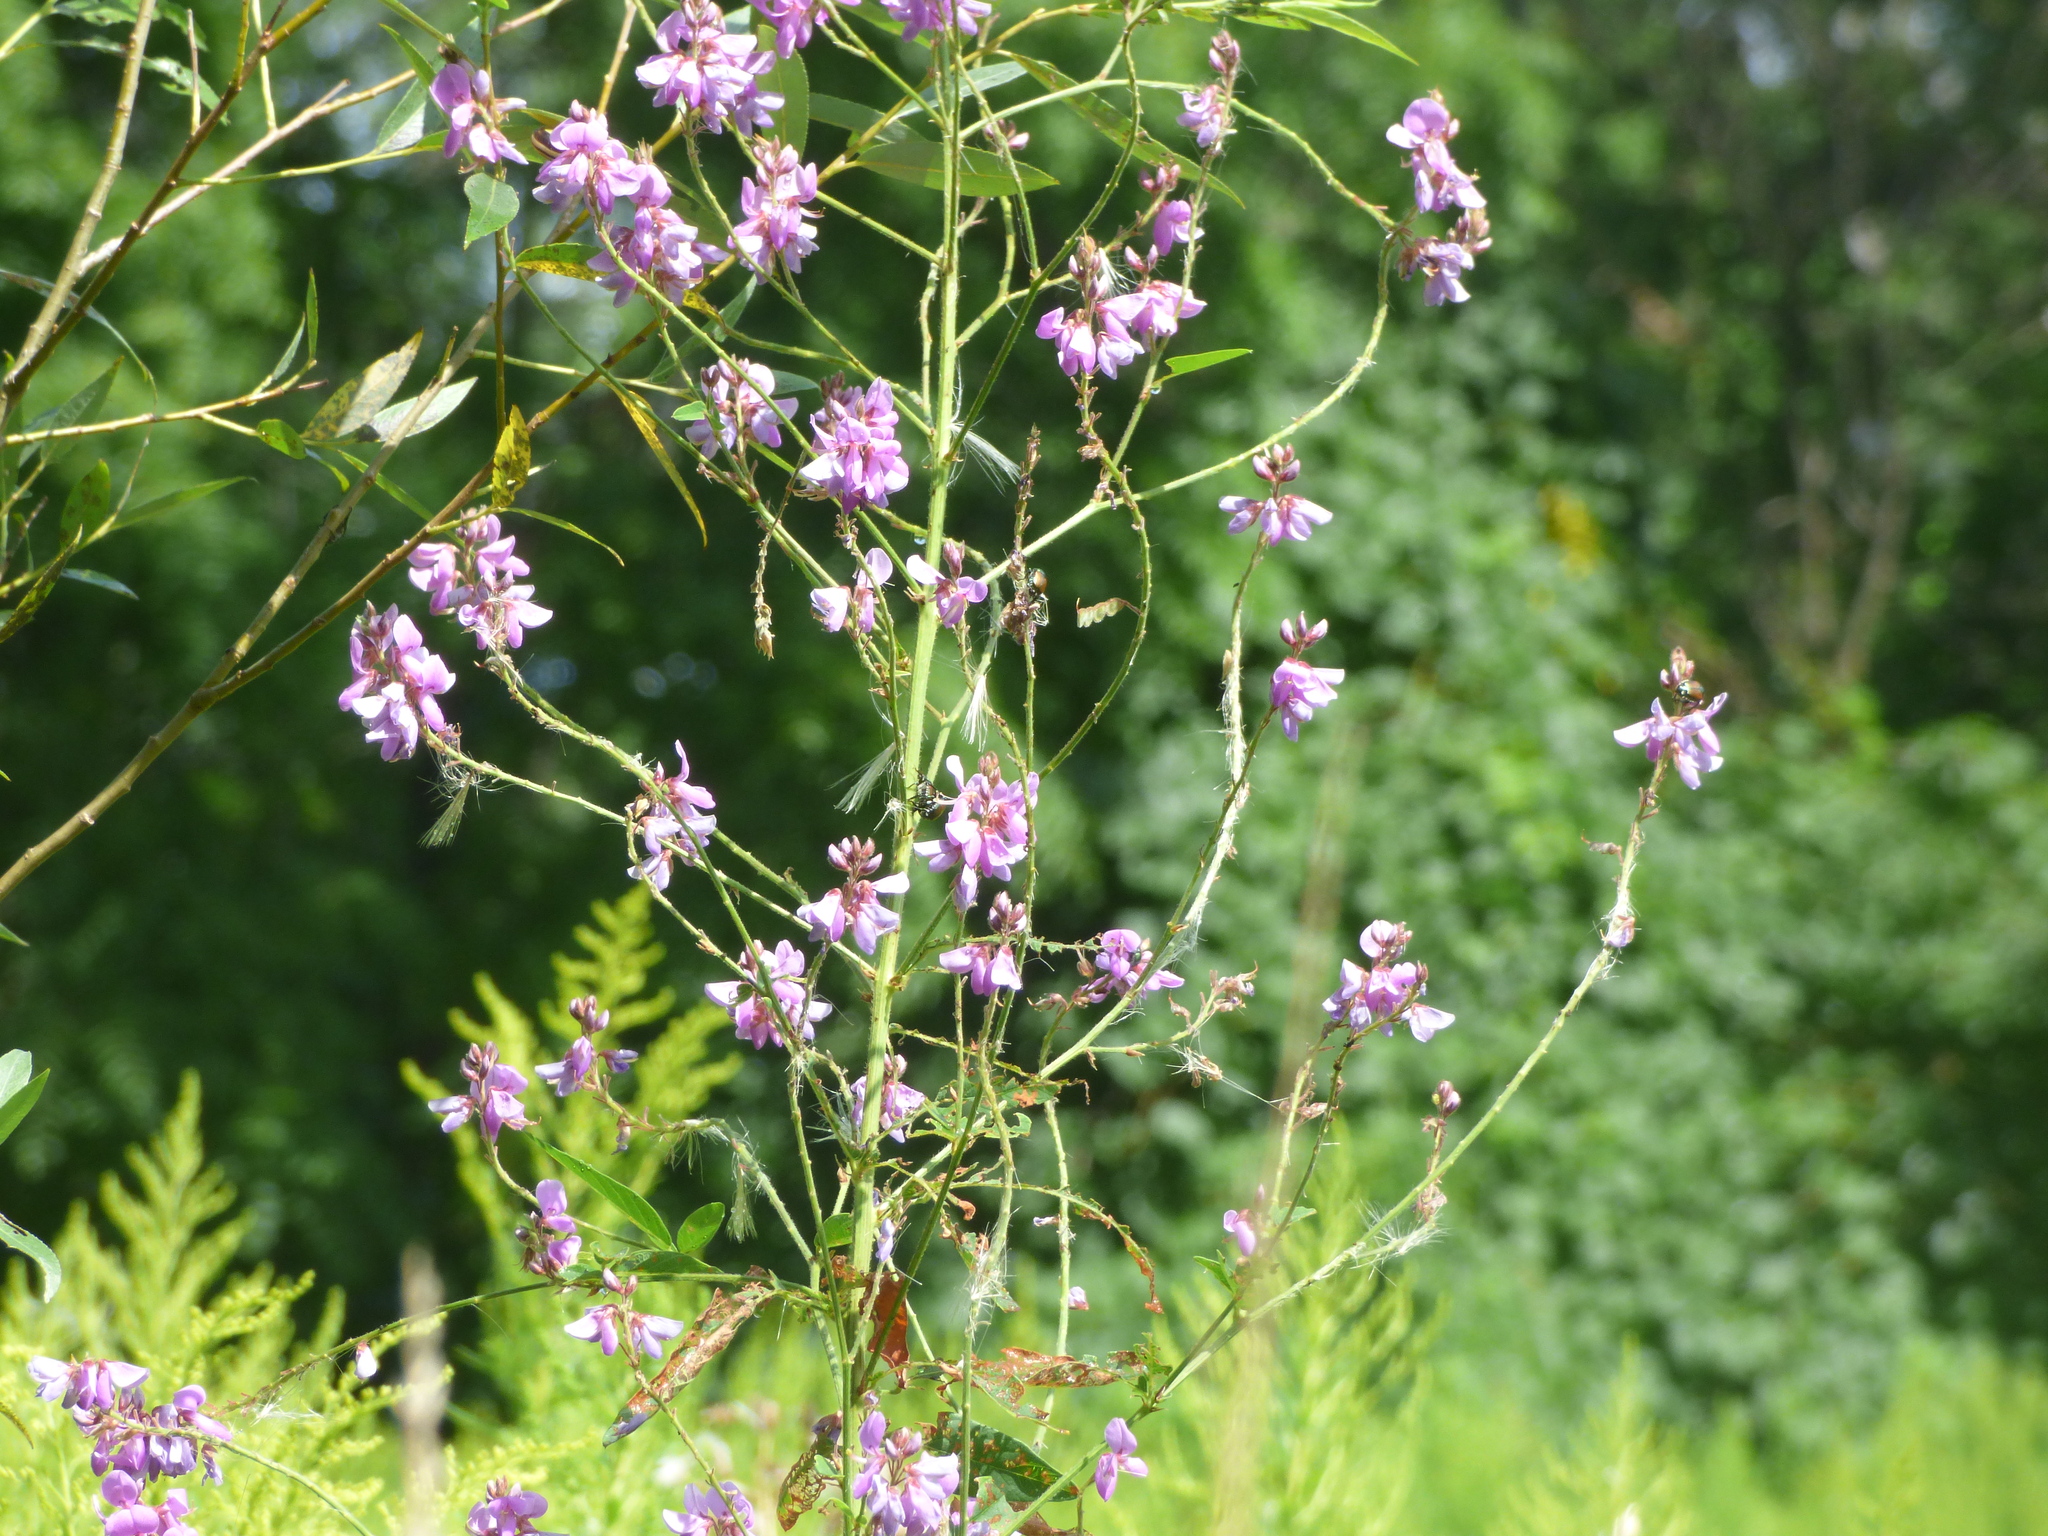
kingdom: Plantae
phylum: Tracheophyta
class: Magnoliopsida
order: Fabales
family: Fabaceae
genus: Desmodium
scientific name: Desmodium canadense
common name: Canada tick-trefoil
